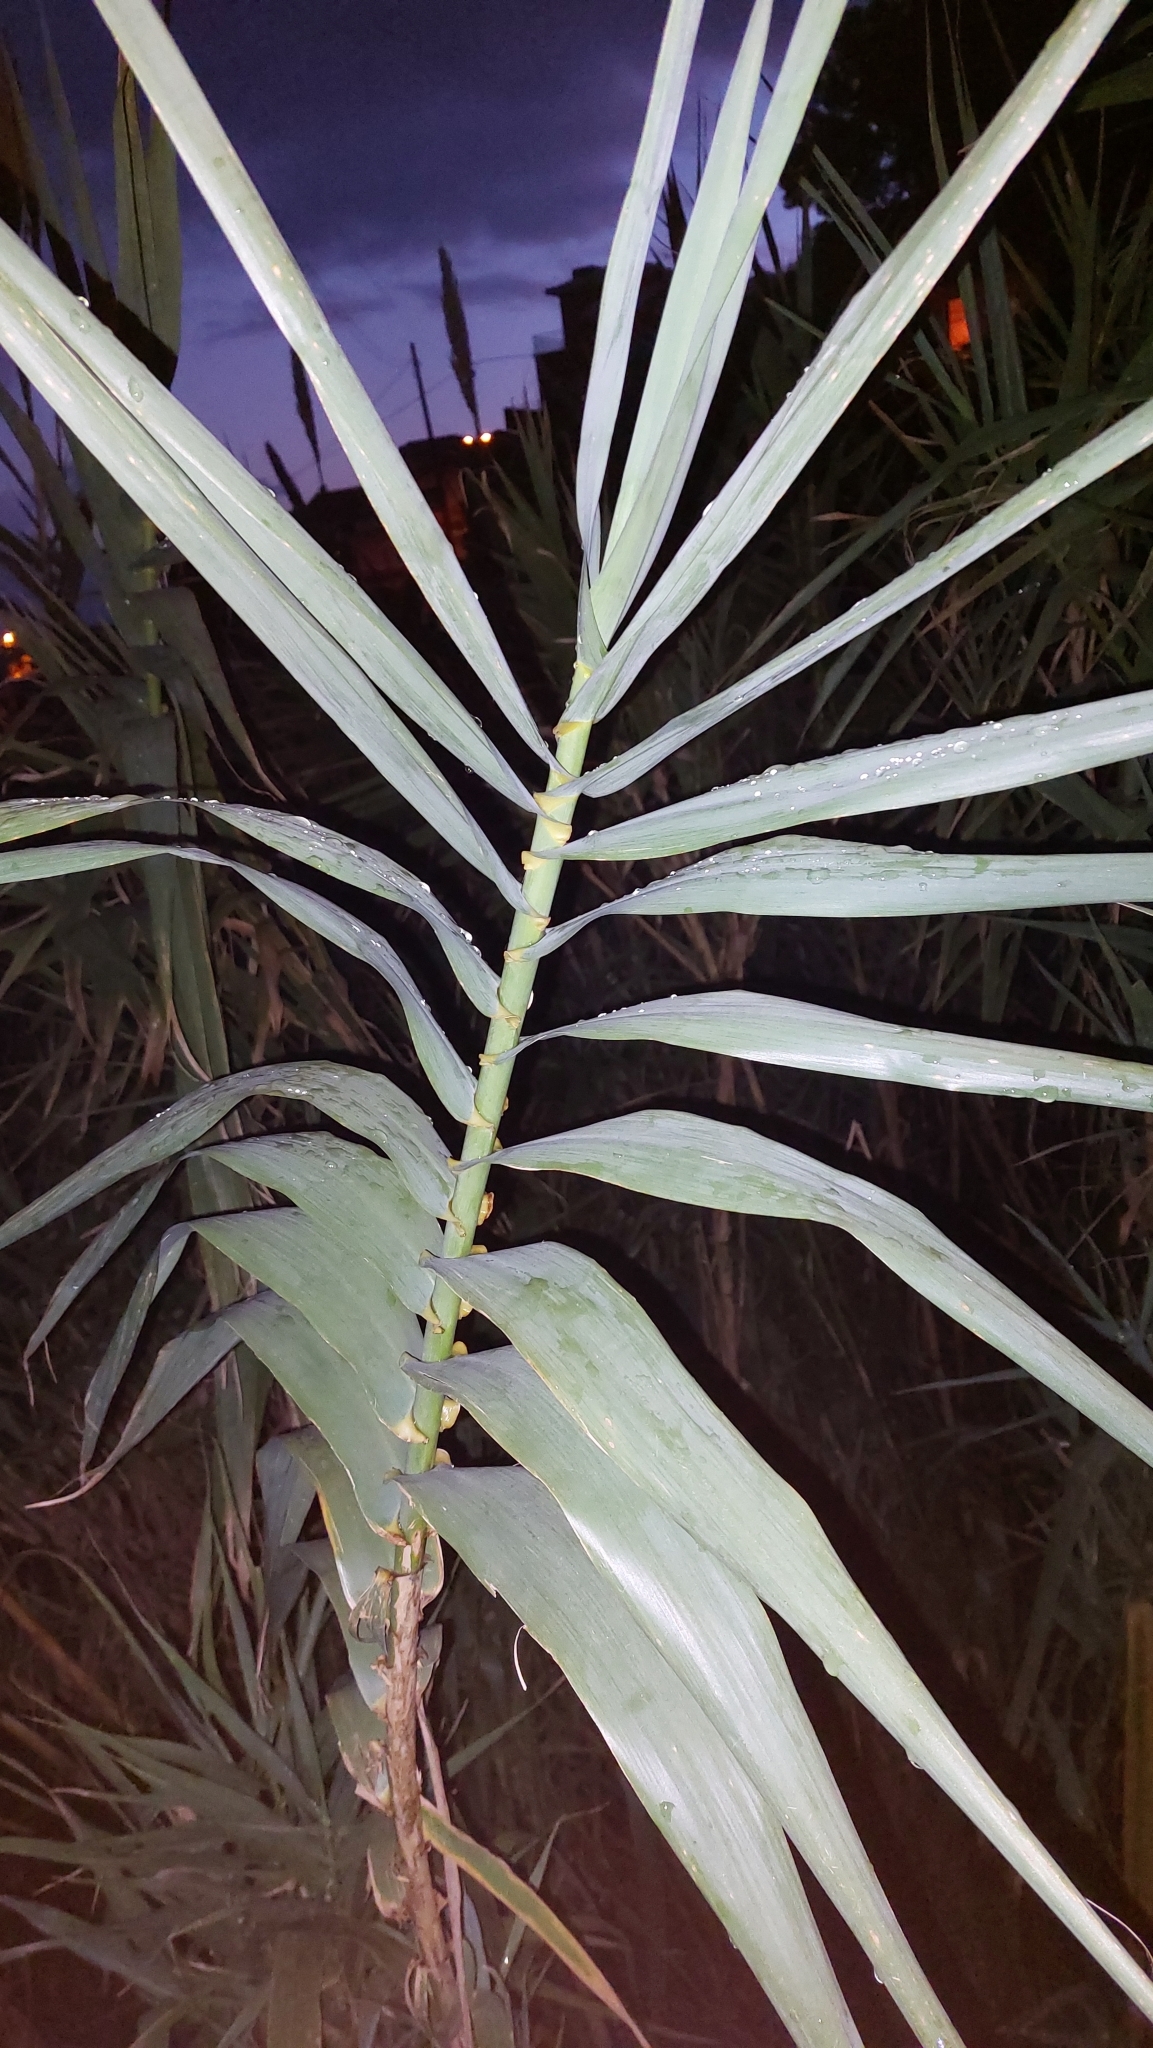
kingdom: Plantae
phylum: Tracheophyta
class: Liliopsida
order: Poales
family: Poaceae
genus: Arundo
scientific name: Arundo donax
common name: Giant reed
